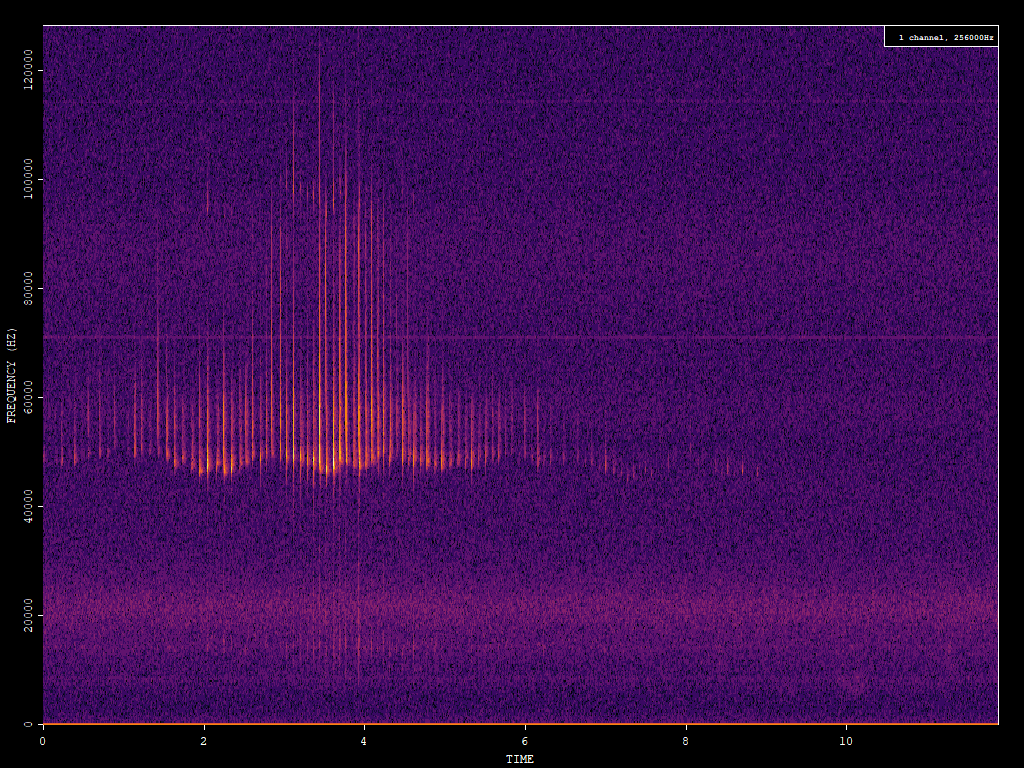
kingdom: Animalia
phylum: Chordata
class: Mammalia
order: Chiroptera
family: Vespertilionidae
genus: Pipistrellus
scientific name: Pipistrellus pipistrellus
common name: Common pipistrelle
